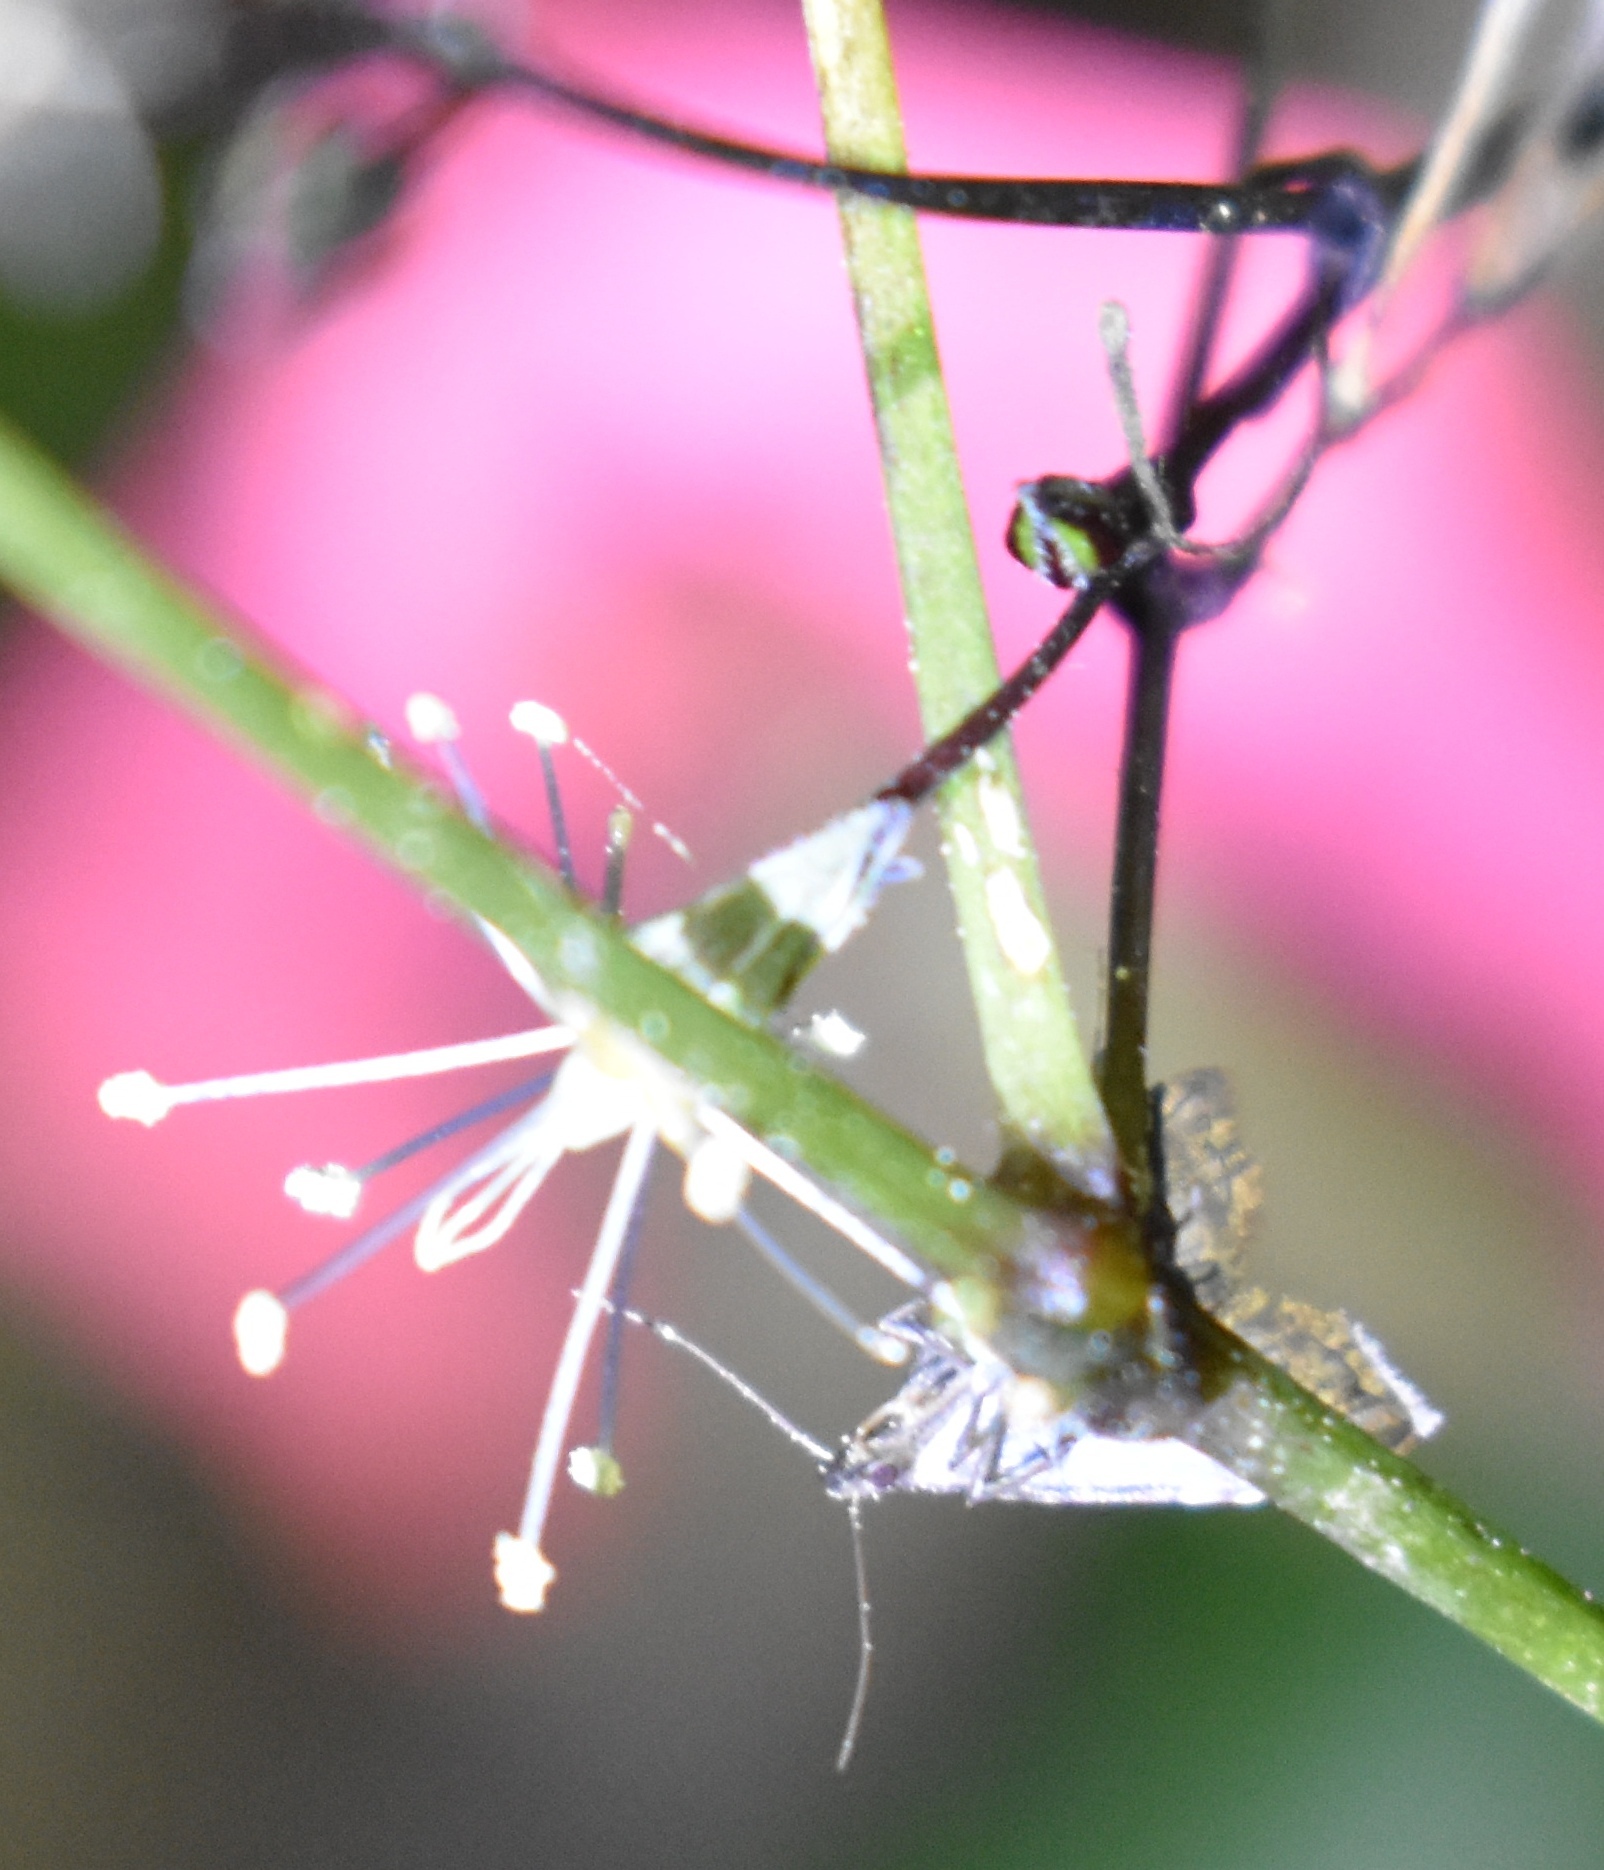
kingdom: Animalia
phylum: Arthropoda
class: Insecta
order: Lepidoptera
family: Erebidae
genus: Pseudoschrankia
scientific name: Pseudoschrankia brevipalpis
